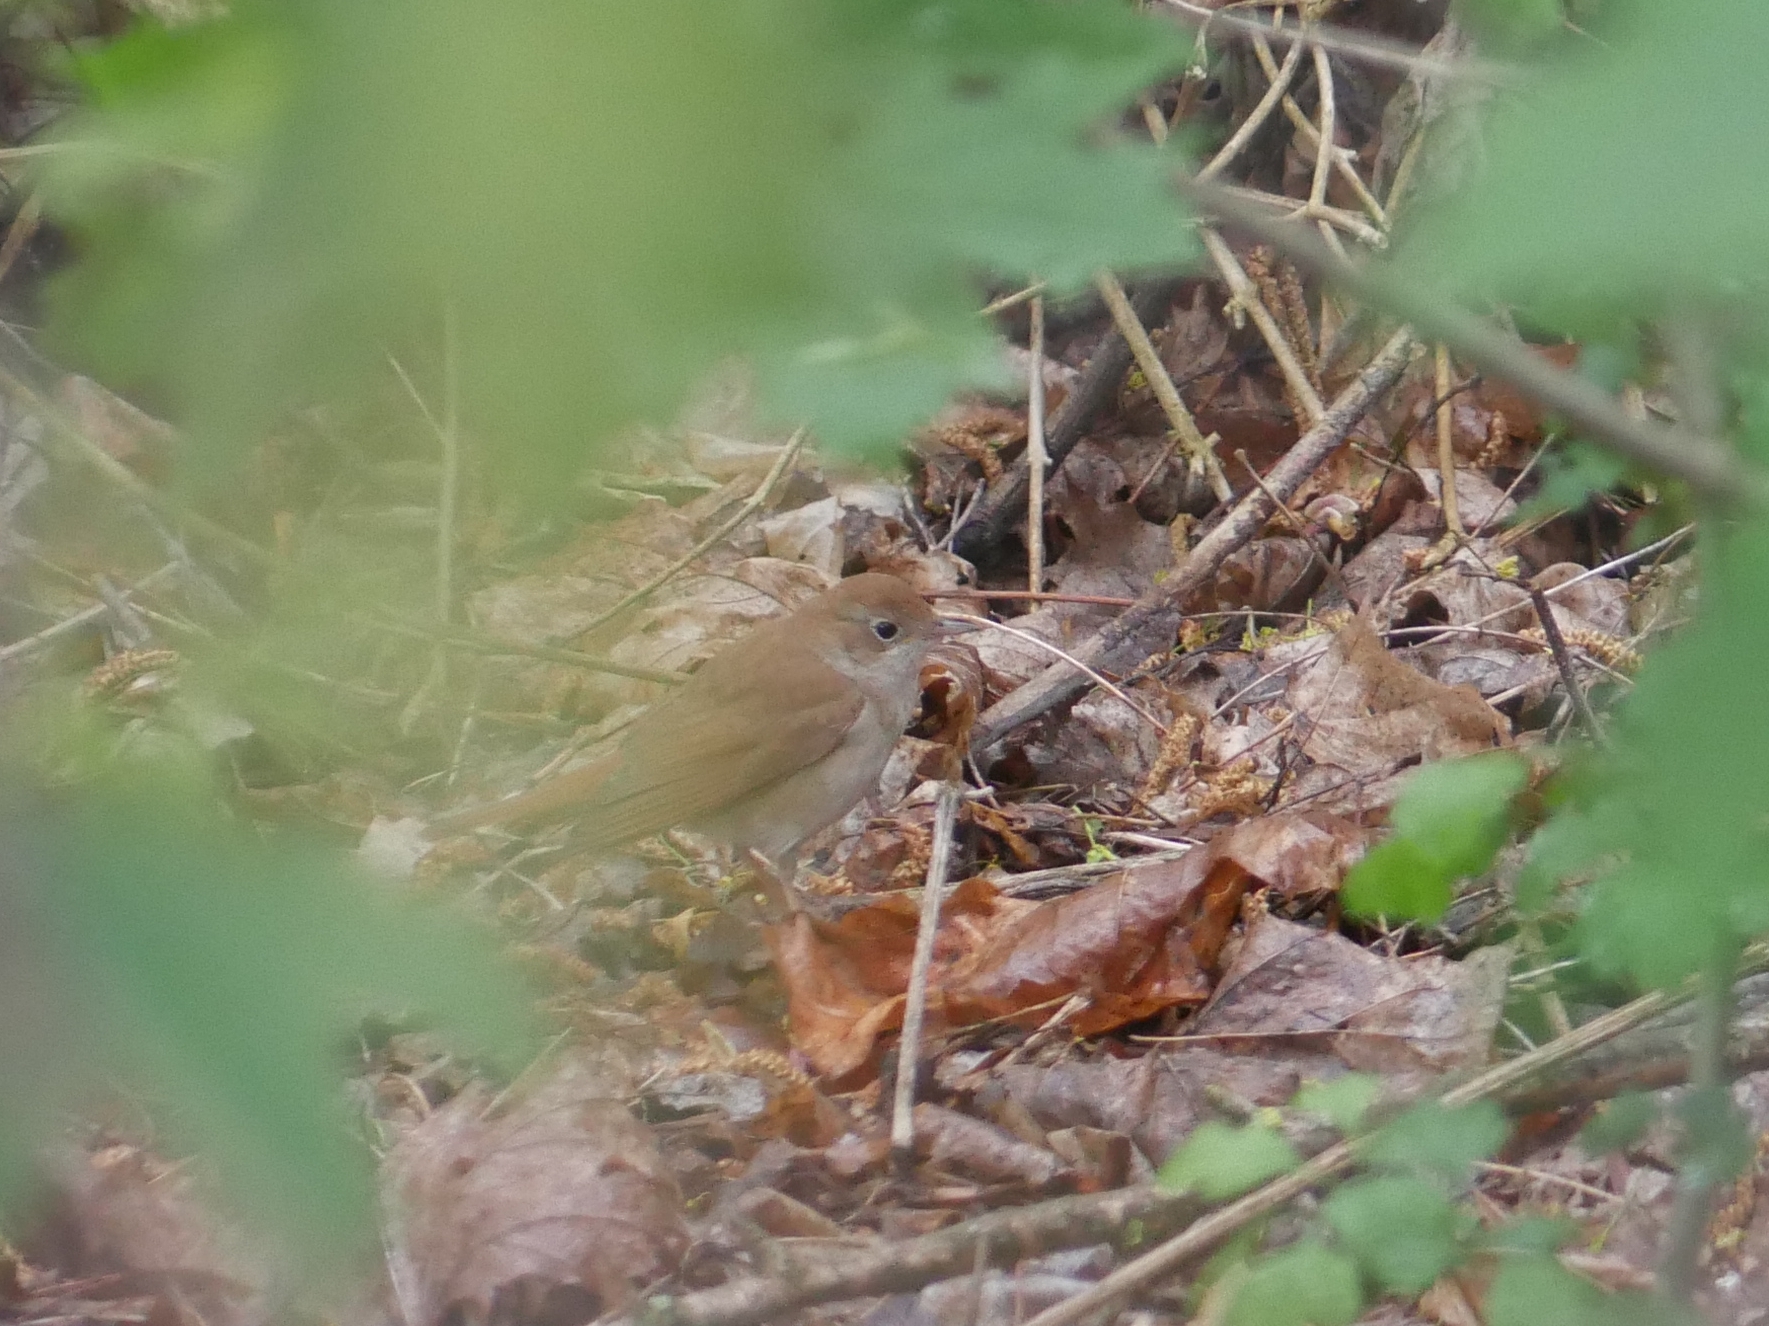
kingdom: Animalia
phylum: Chordata
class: Aves
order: Passeriformes
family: Muscicapidae
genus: Luscinia
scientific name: Luscinia megarhynchos
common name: Common nightingale
